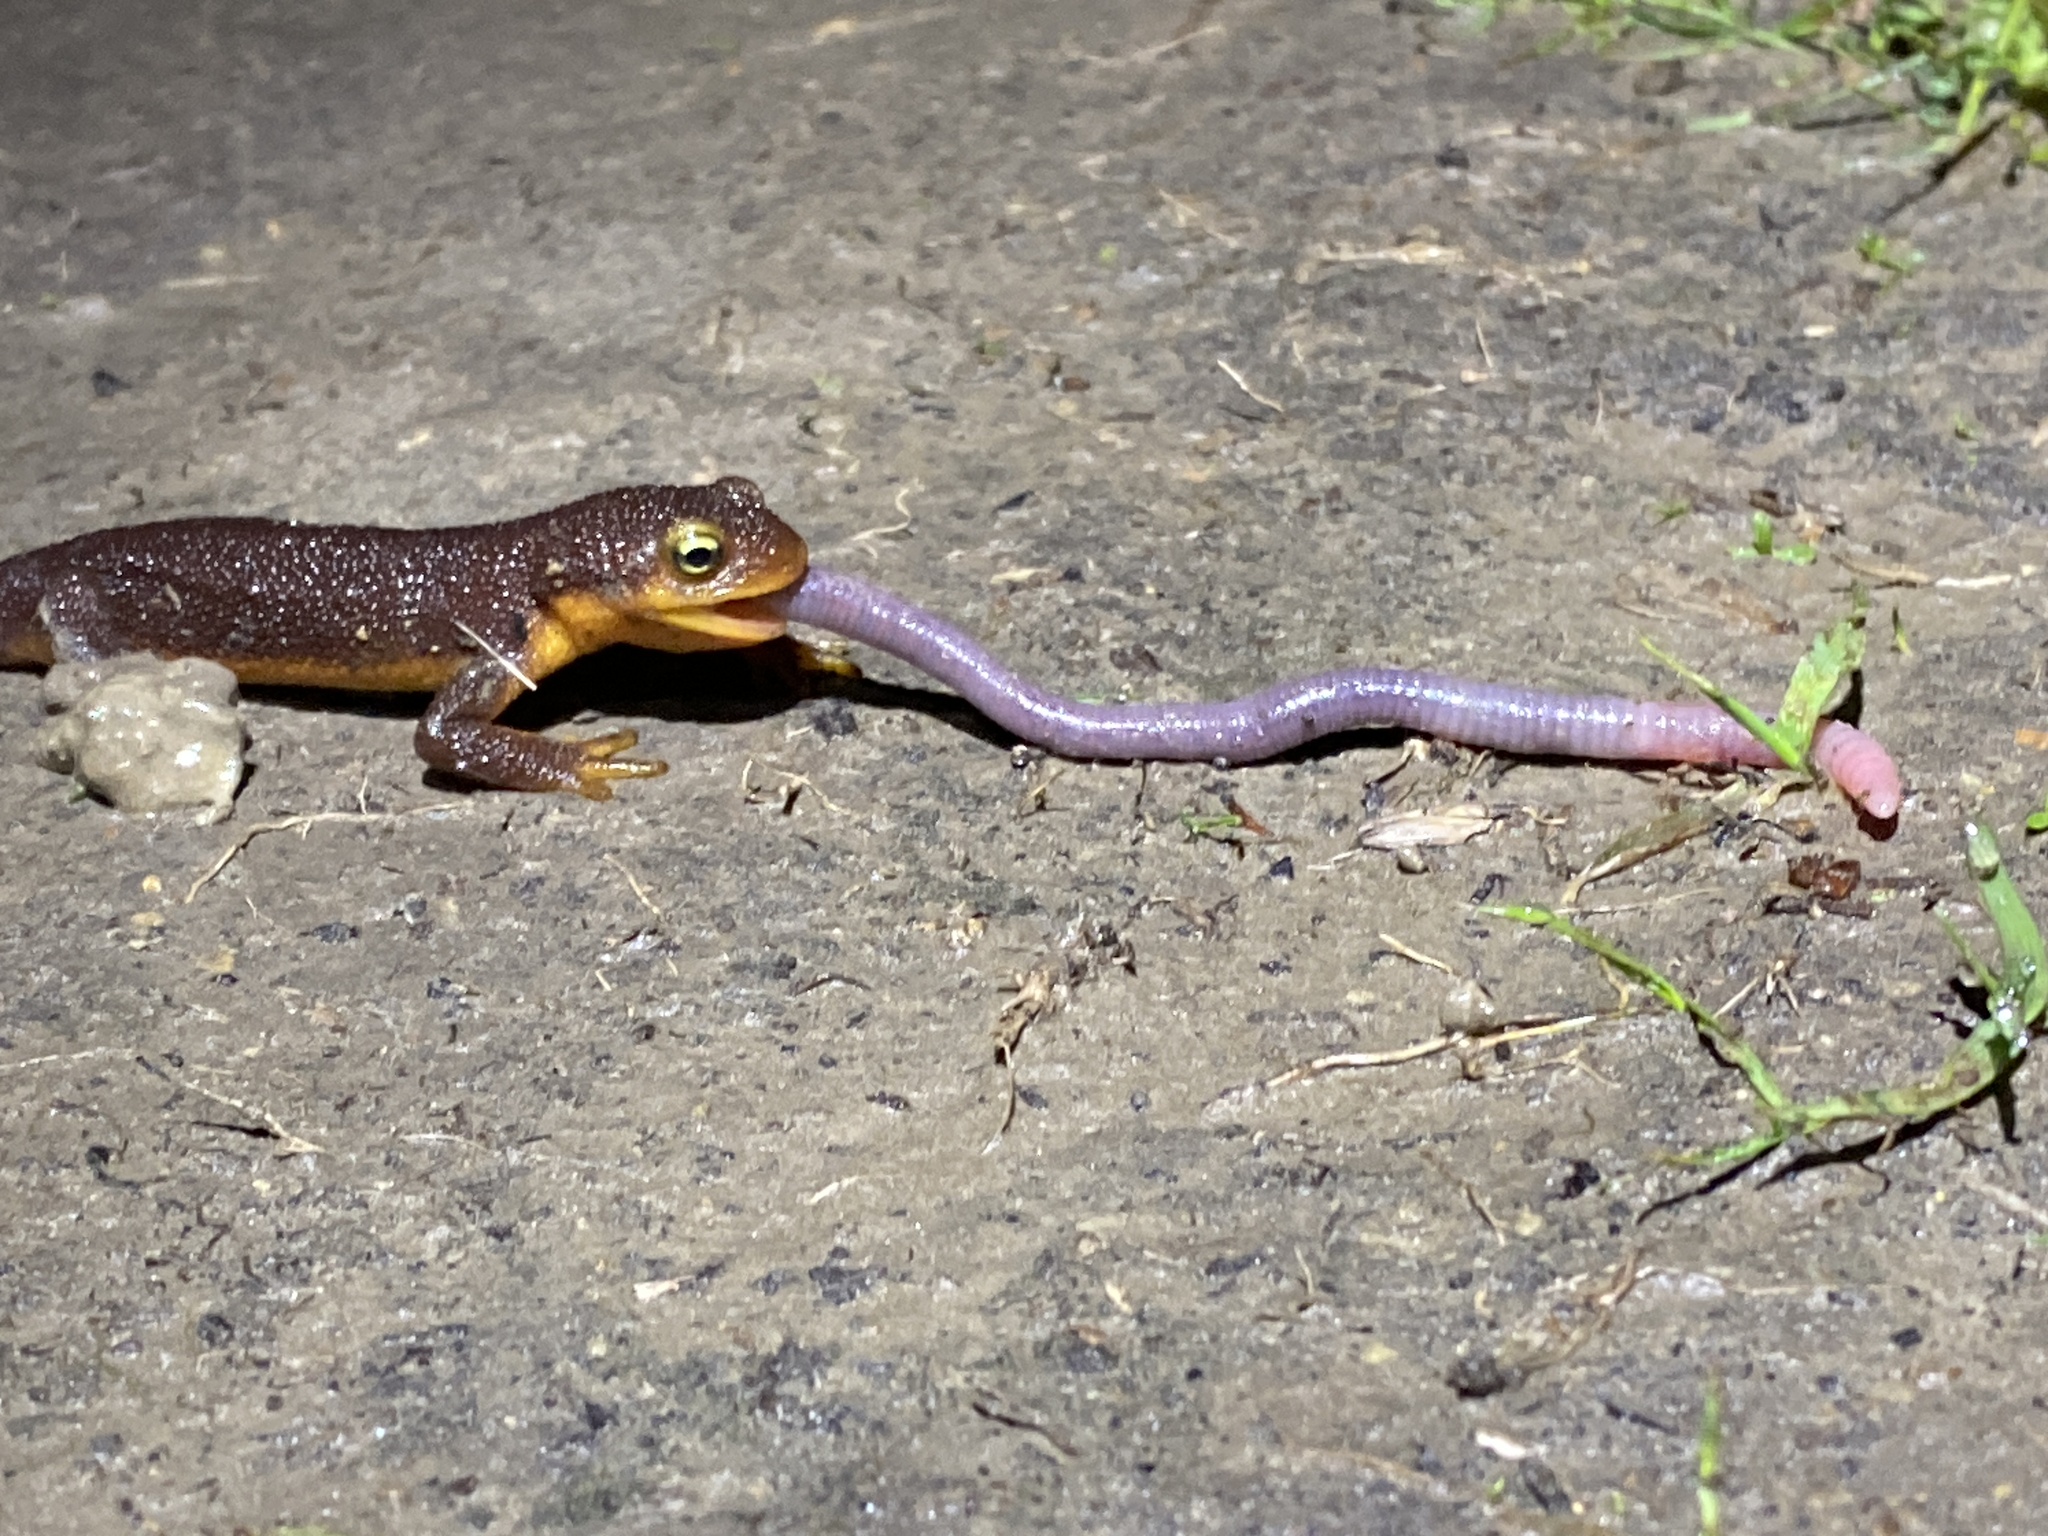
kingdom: Animalia
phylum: Chordata
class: Amphibia
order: Caudata
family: Salamandridae
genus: Taricha
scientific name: Taricha torosa
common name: California newt
